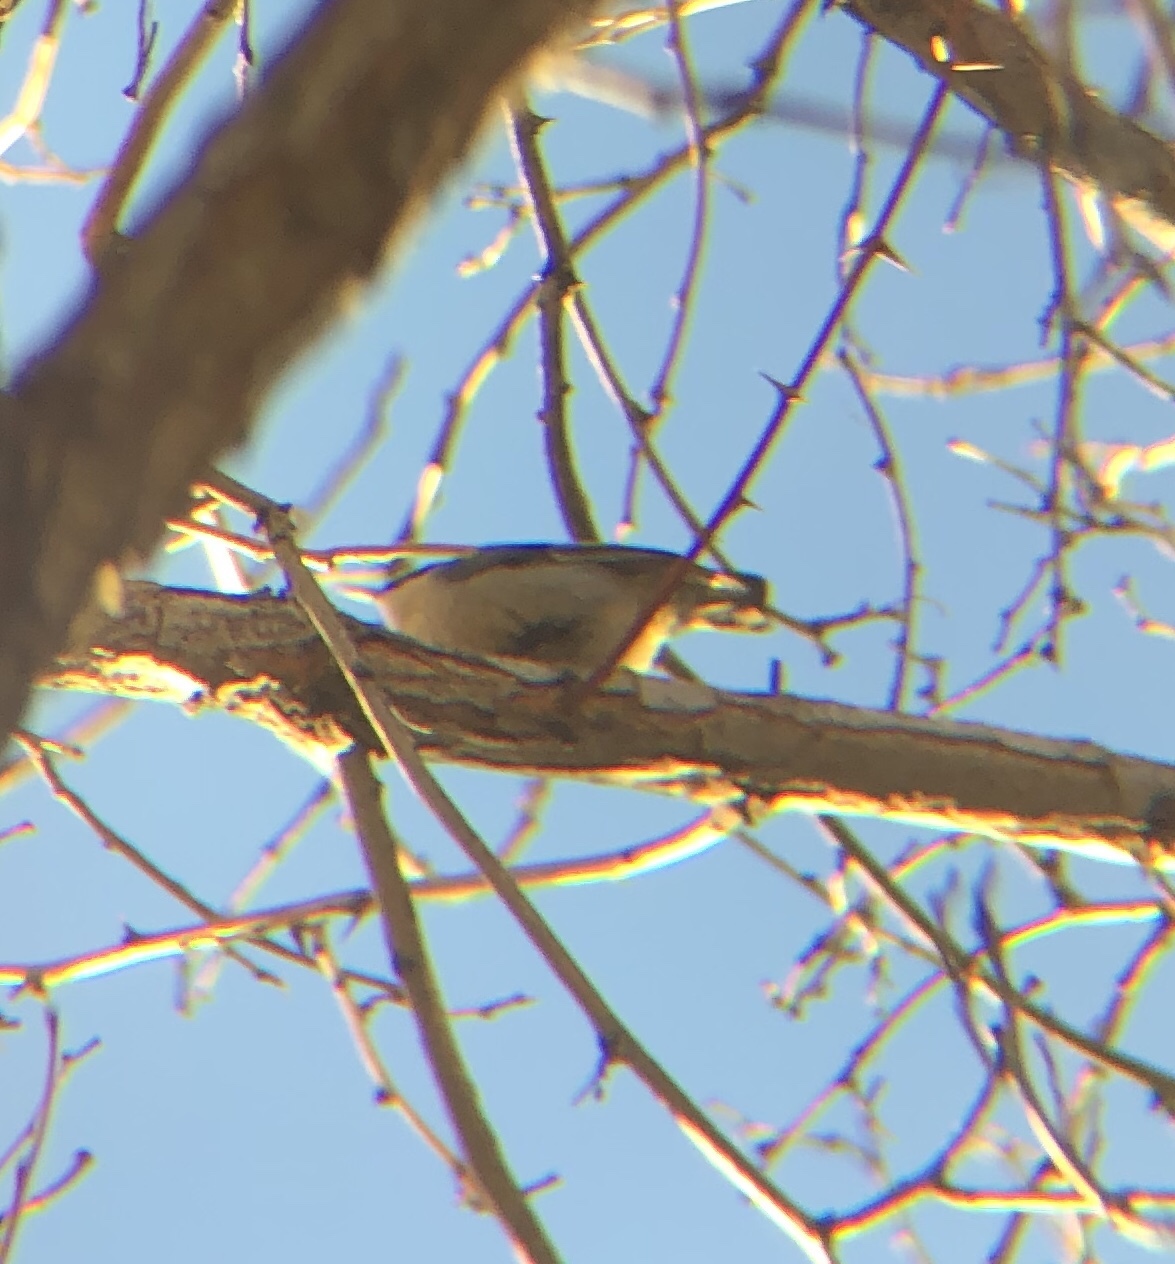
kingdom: Animalia
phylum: Chordata
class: Aves
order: Passeriformes
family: Sittidae
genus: Sitta
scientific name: Sitta pygmaea
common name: Pygmy nuthatch
